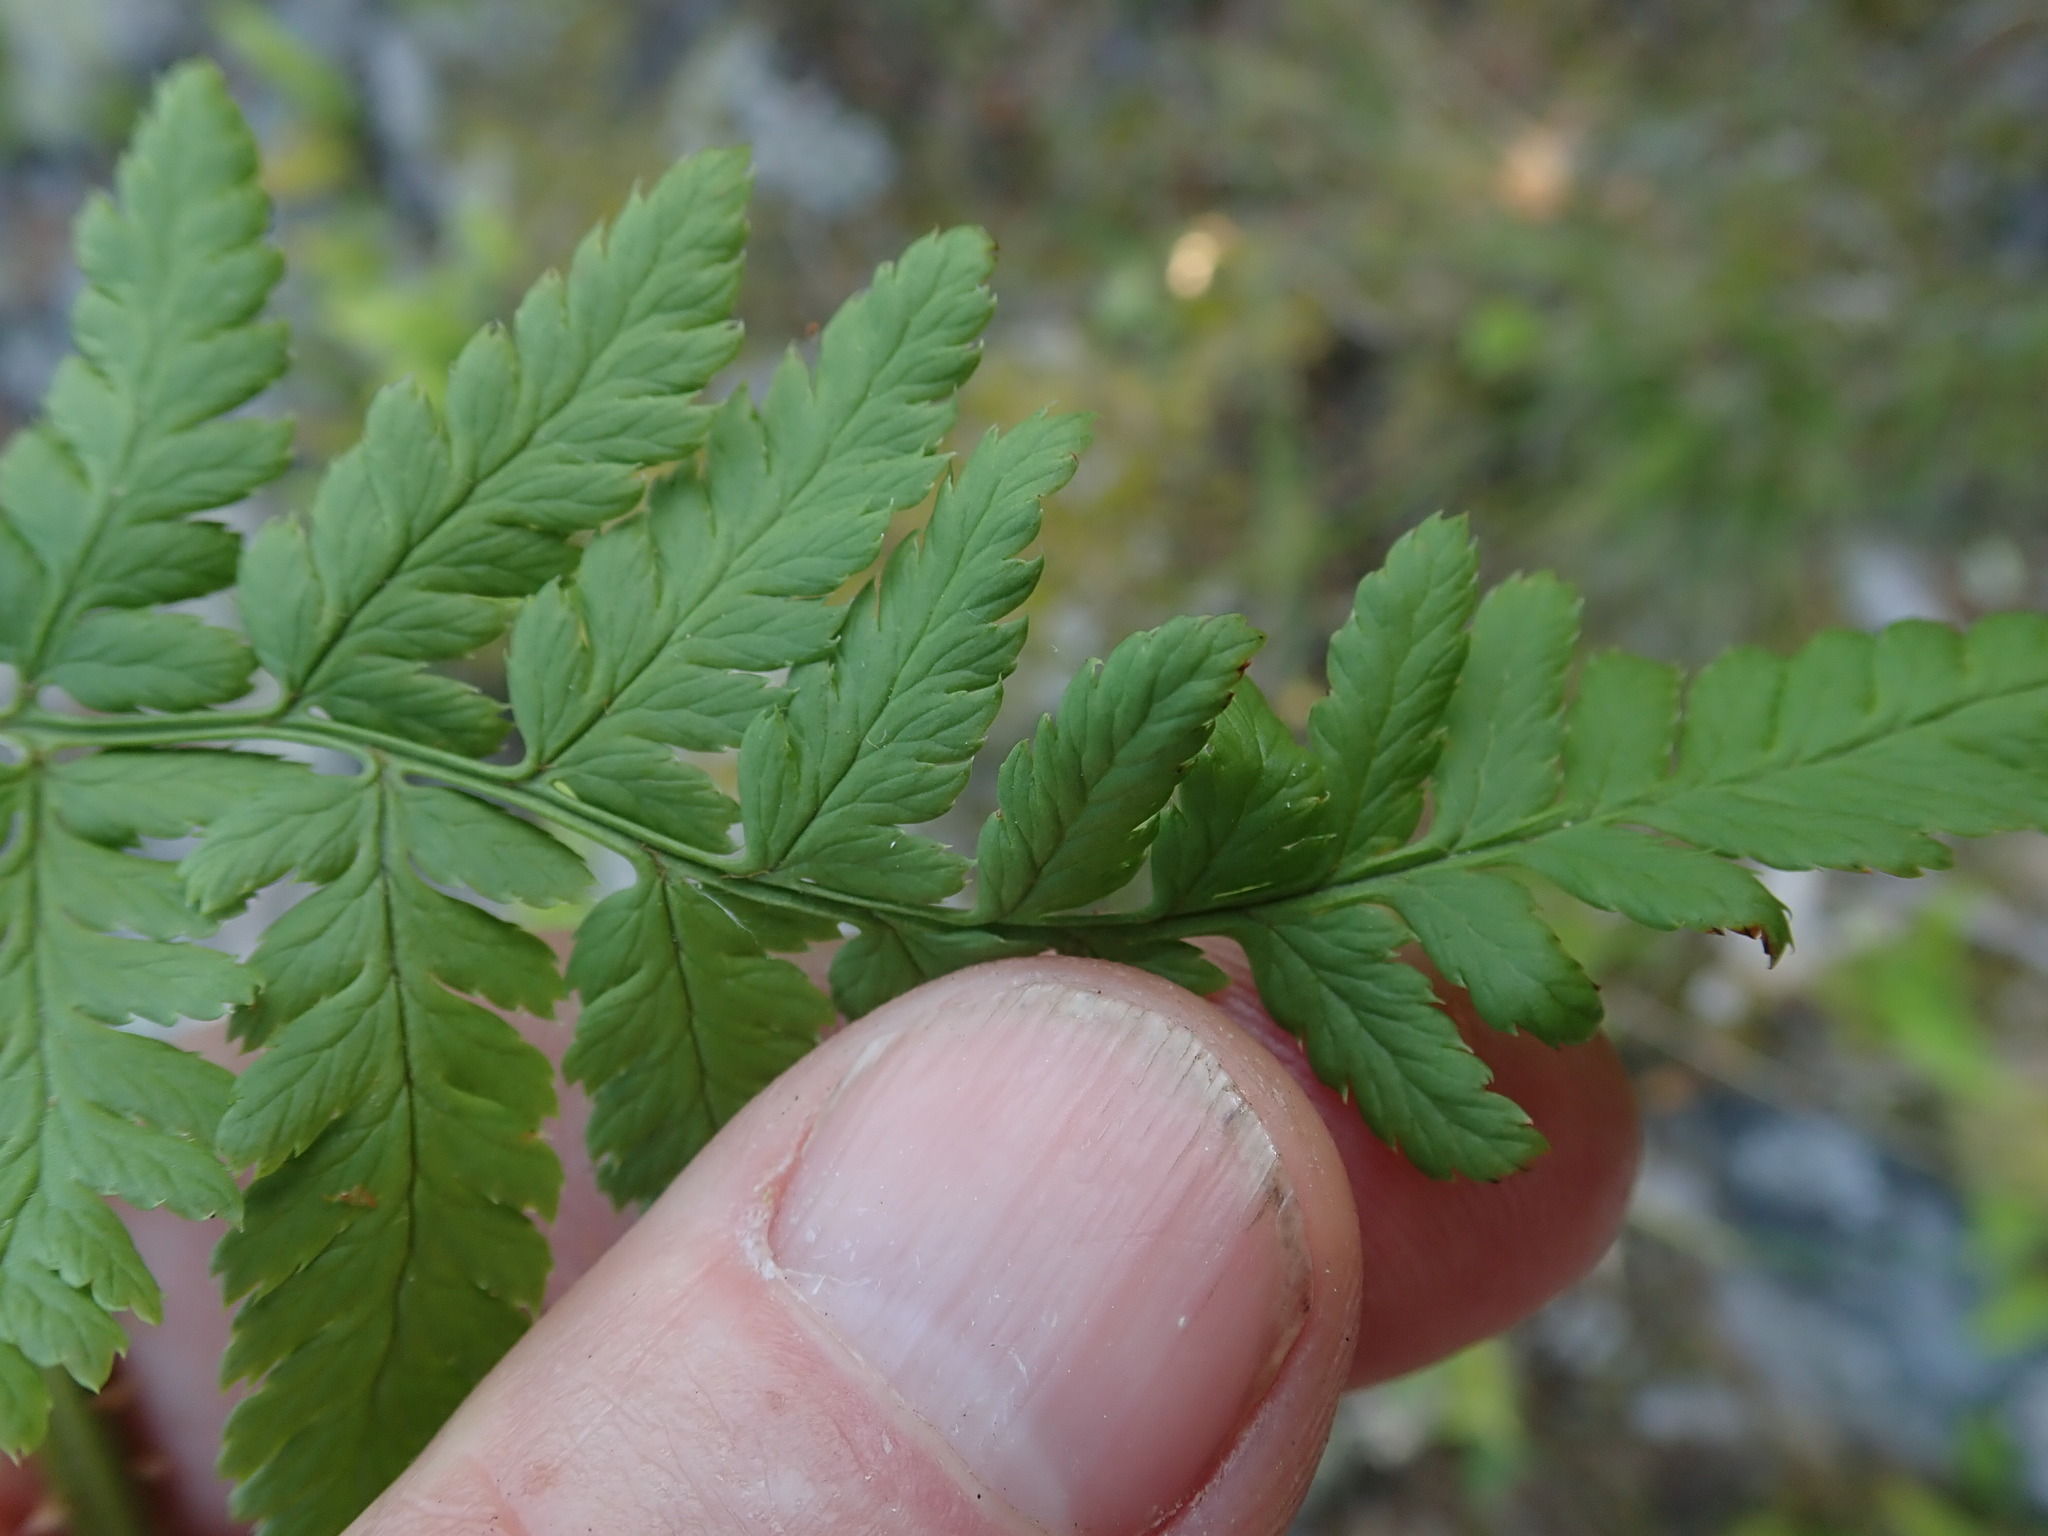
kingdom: Plantae
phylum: Tracheophyta
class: Polypodiopsida
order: Polypodiales
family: Dryopteridaceae
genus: Dryopteris
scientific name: Dryopteris intermedia
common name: Evergreen wood fern
